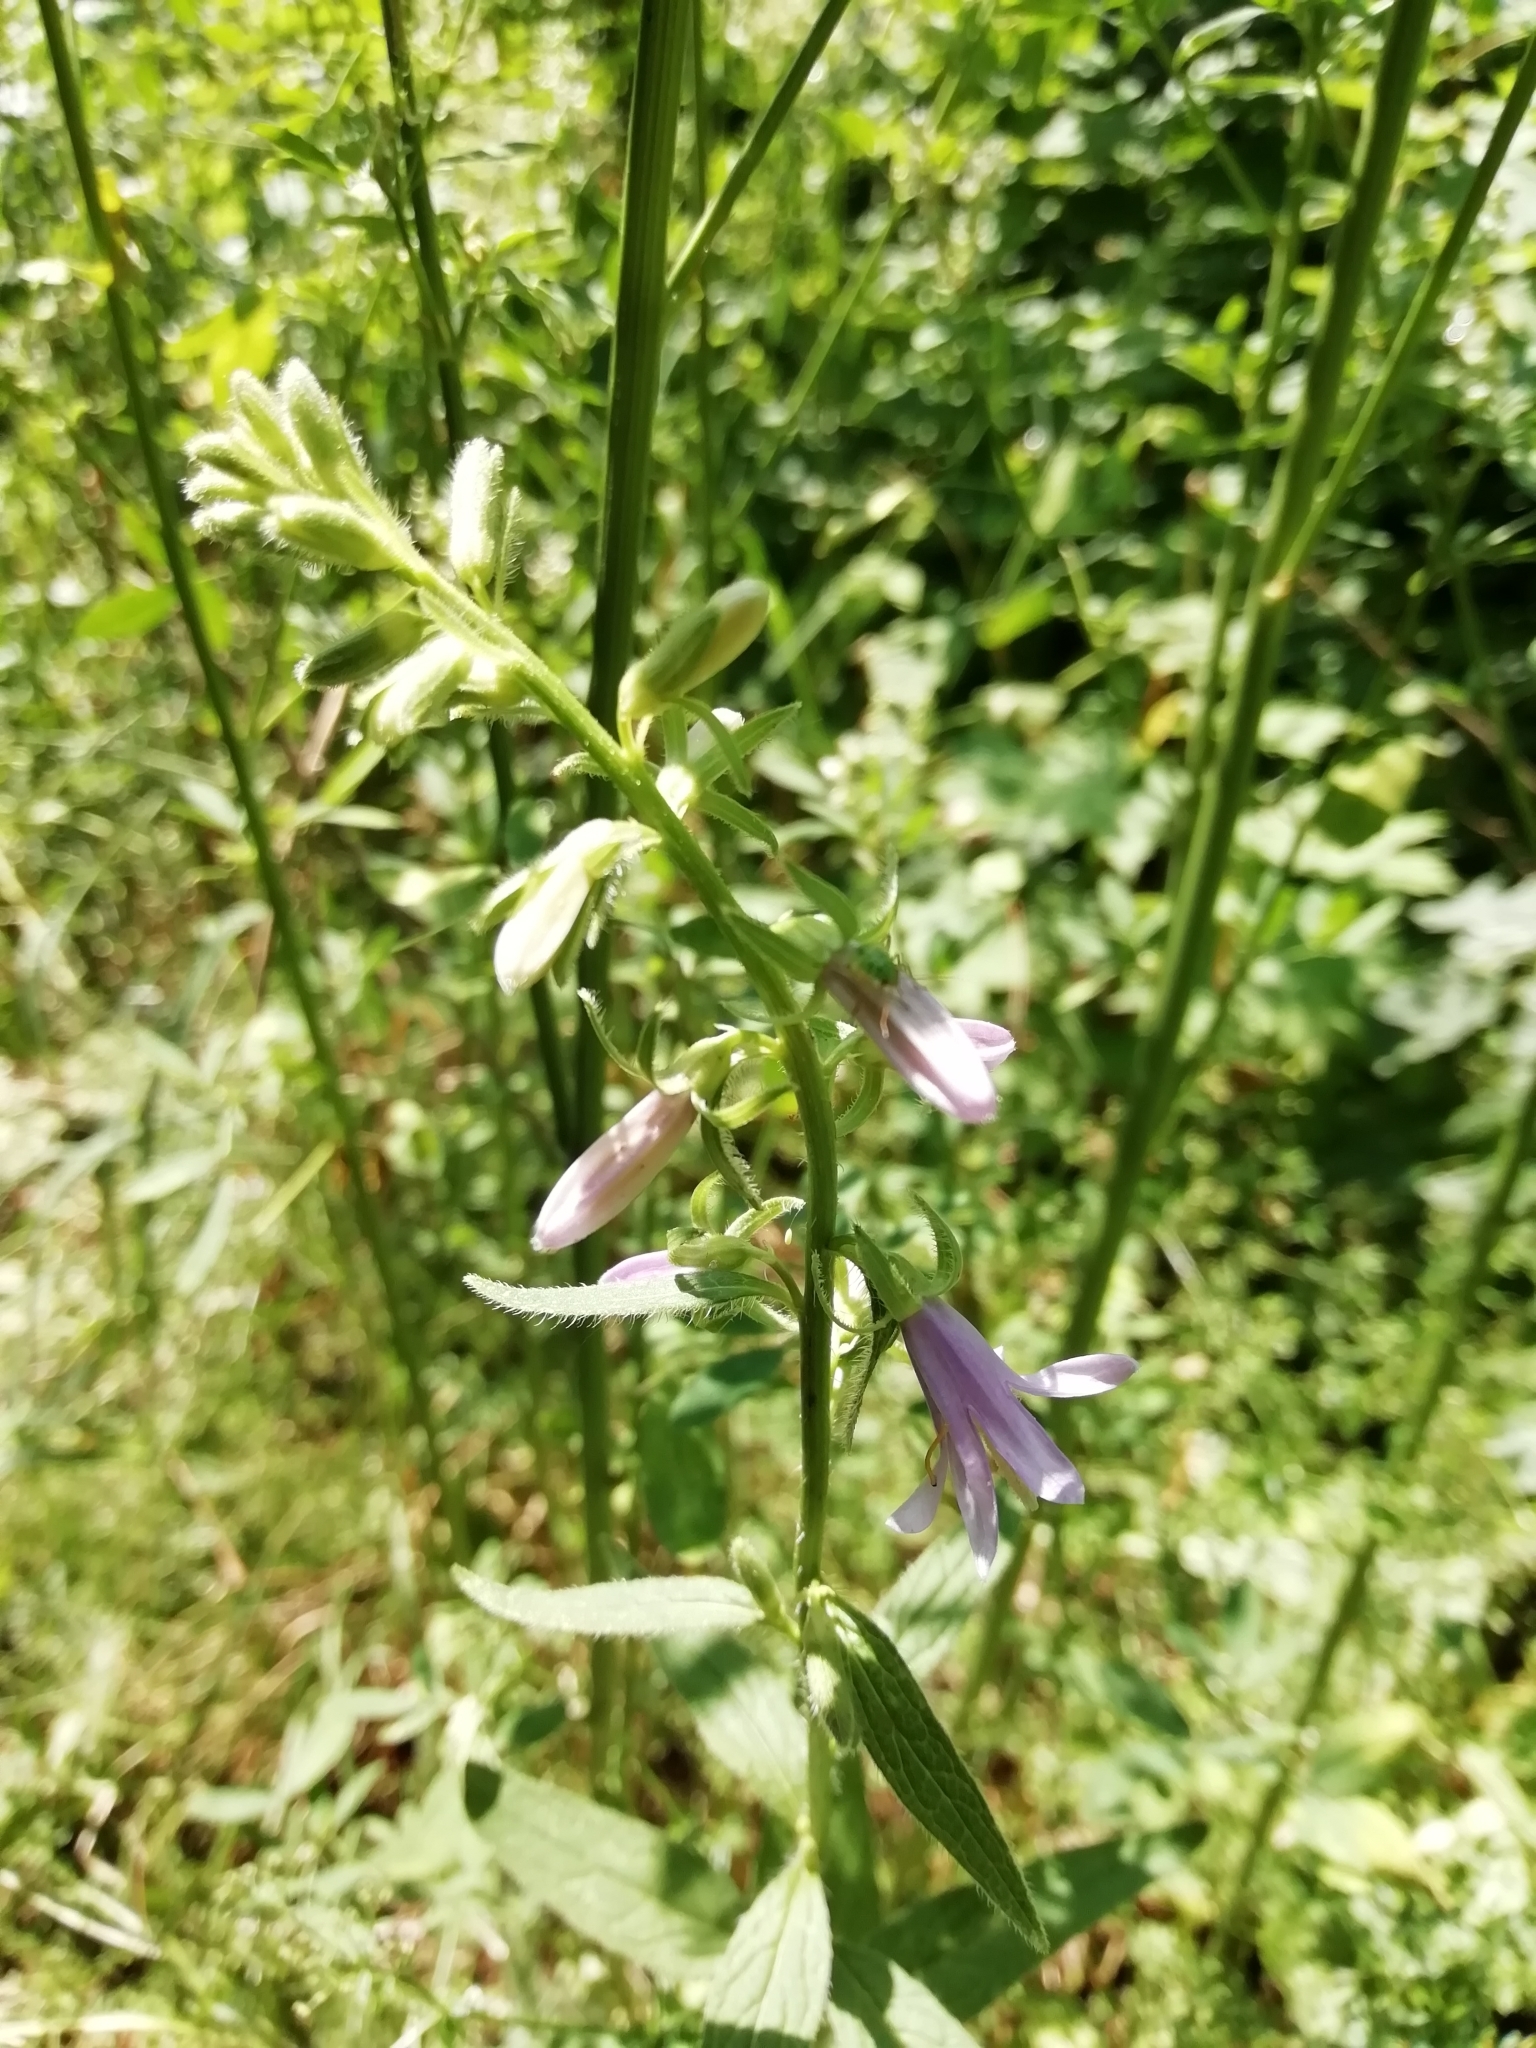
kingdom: Plantae
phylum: Tracheophyta
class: Magnoliopsida
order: Asterales
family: Campanulaceae
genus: Campanula
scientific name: Campanula rapunculoides
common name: Creeping bellflower
